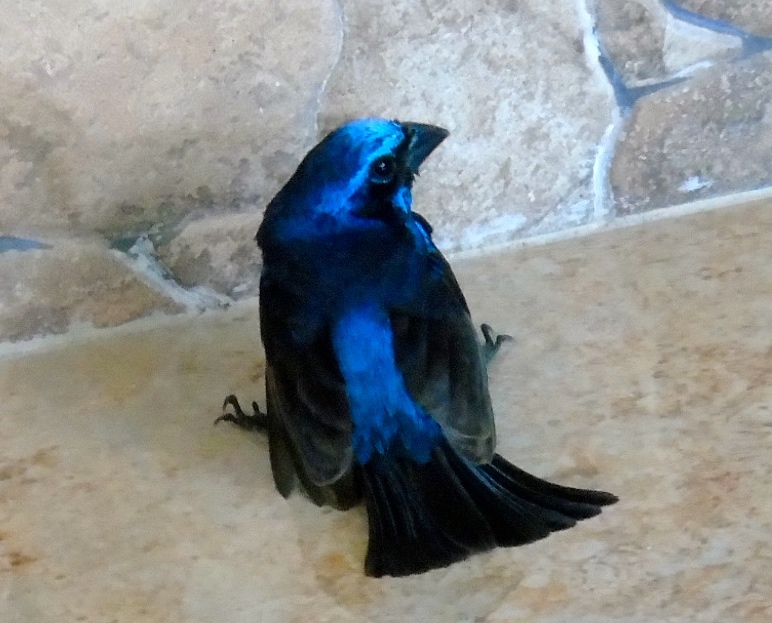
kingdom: Animalia
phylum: Chordata
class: Aves
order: Passeriformes
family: Cardinalidae
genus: Cyanocompsa
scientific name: Cyanocompsa parellina
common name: Blue bunting
